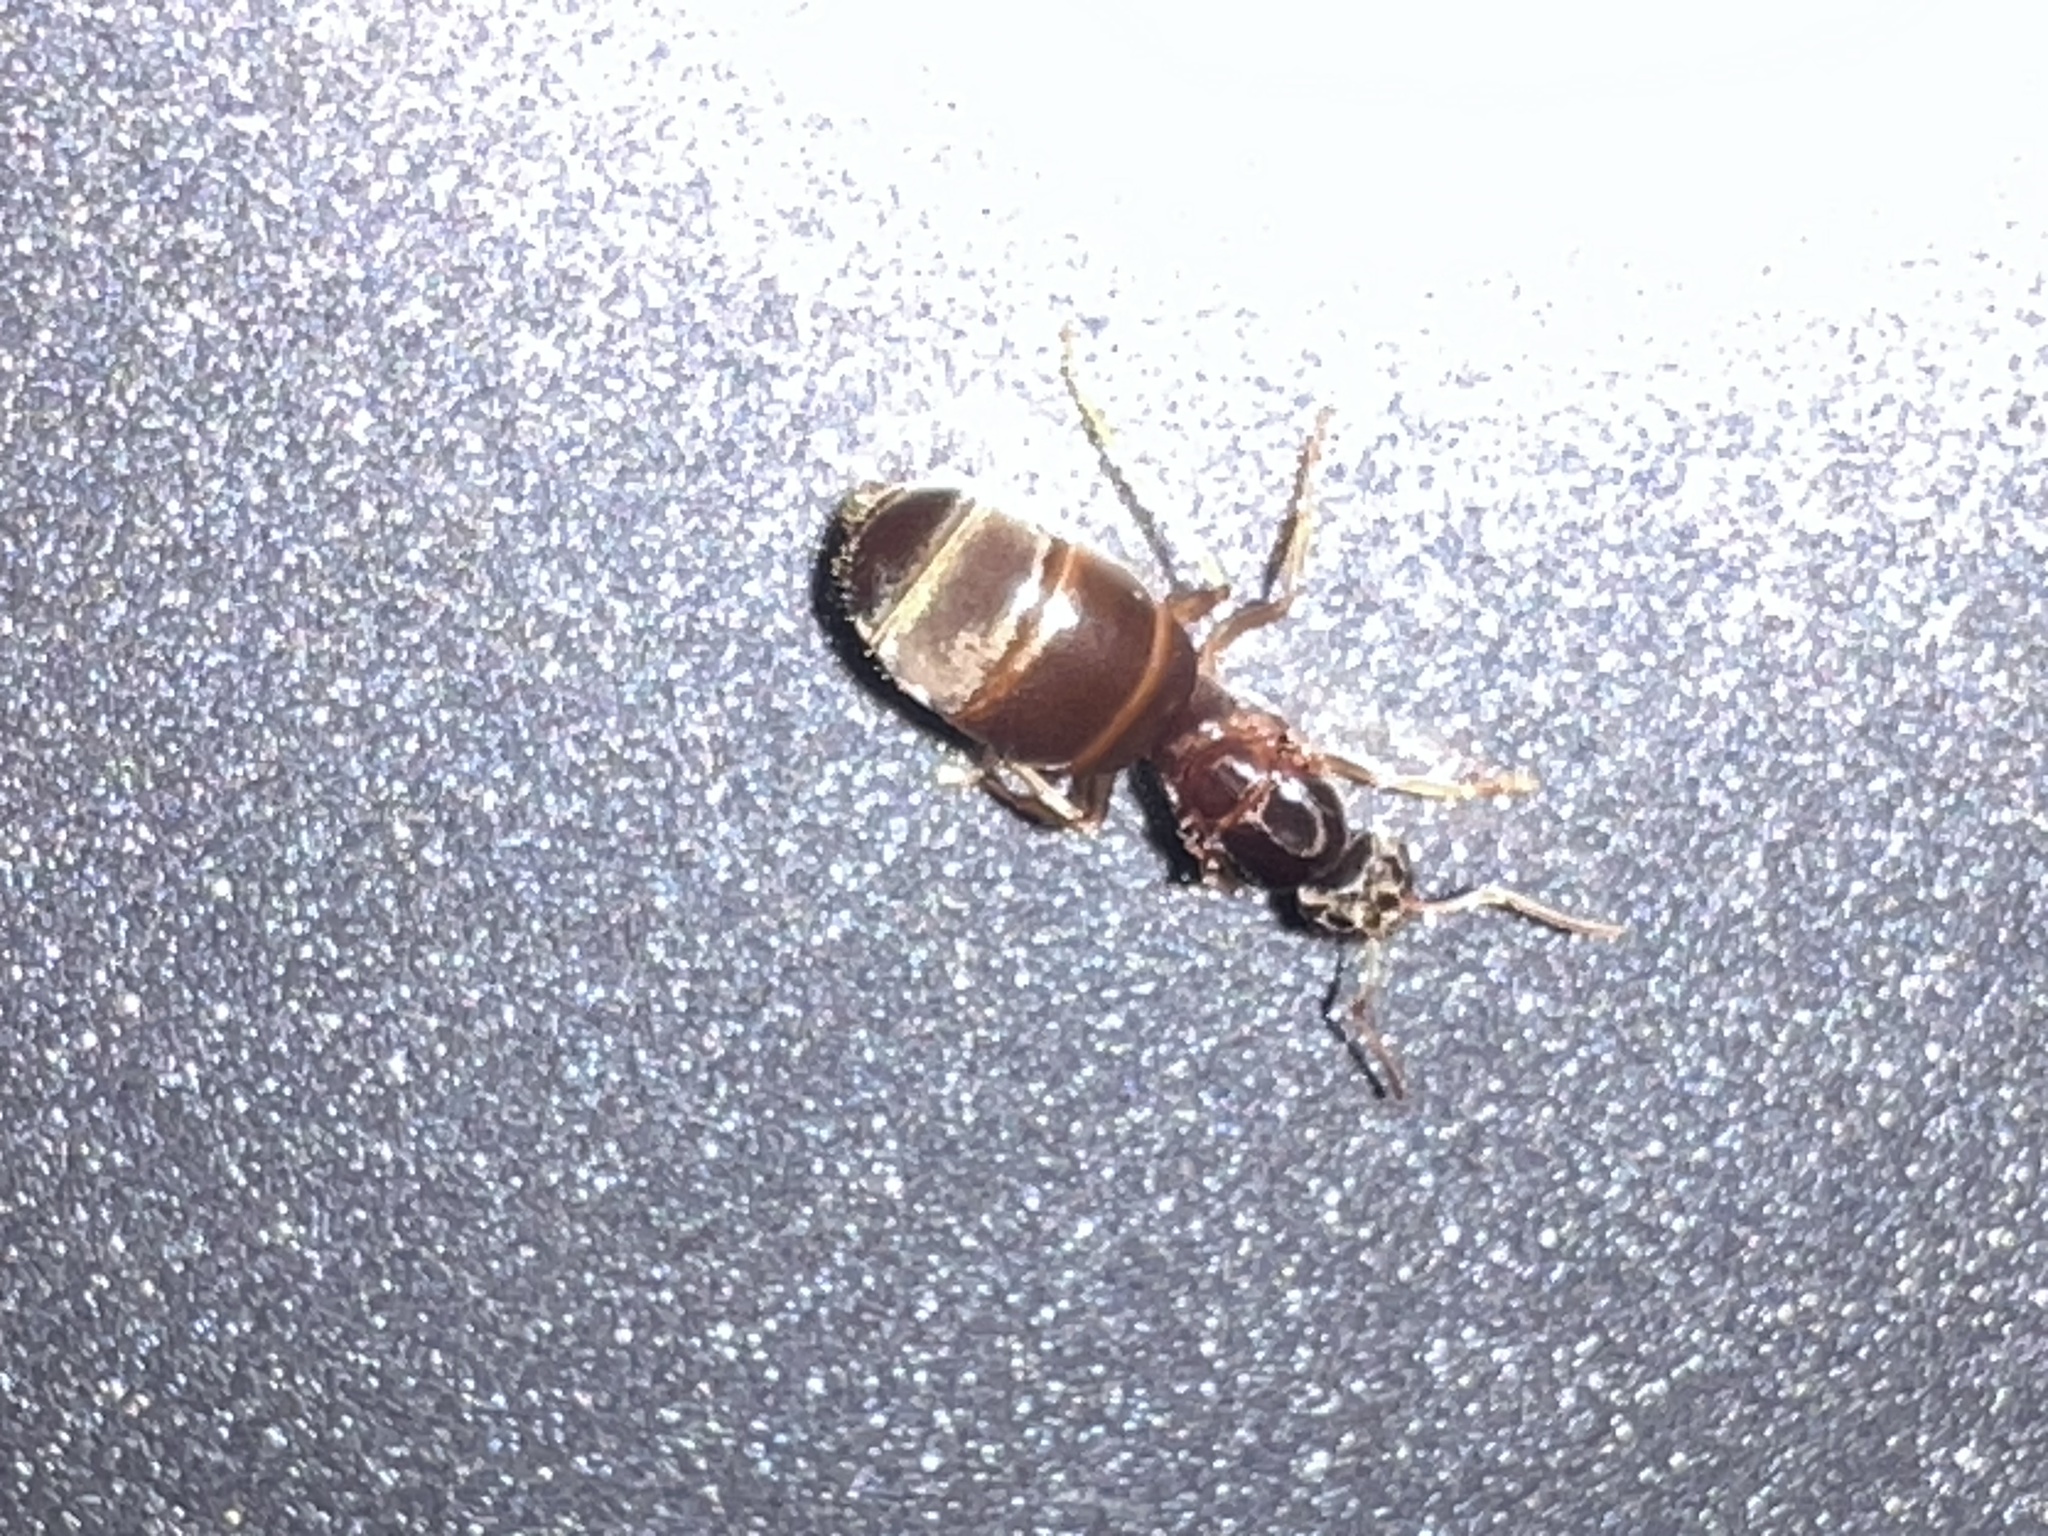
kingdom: Animalia
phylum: Arthropoda
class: Insecta
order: Hymenoptera
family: Formicidae
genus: Lasius
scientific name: Lasius neoniger
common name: Turfgrass ant
